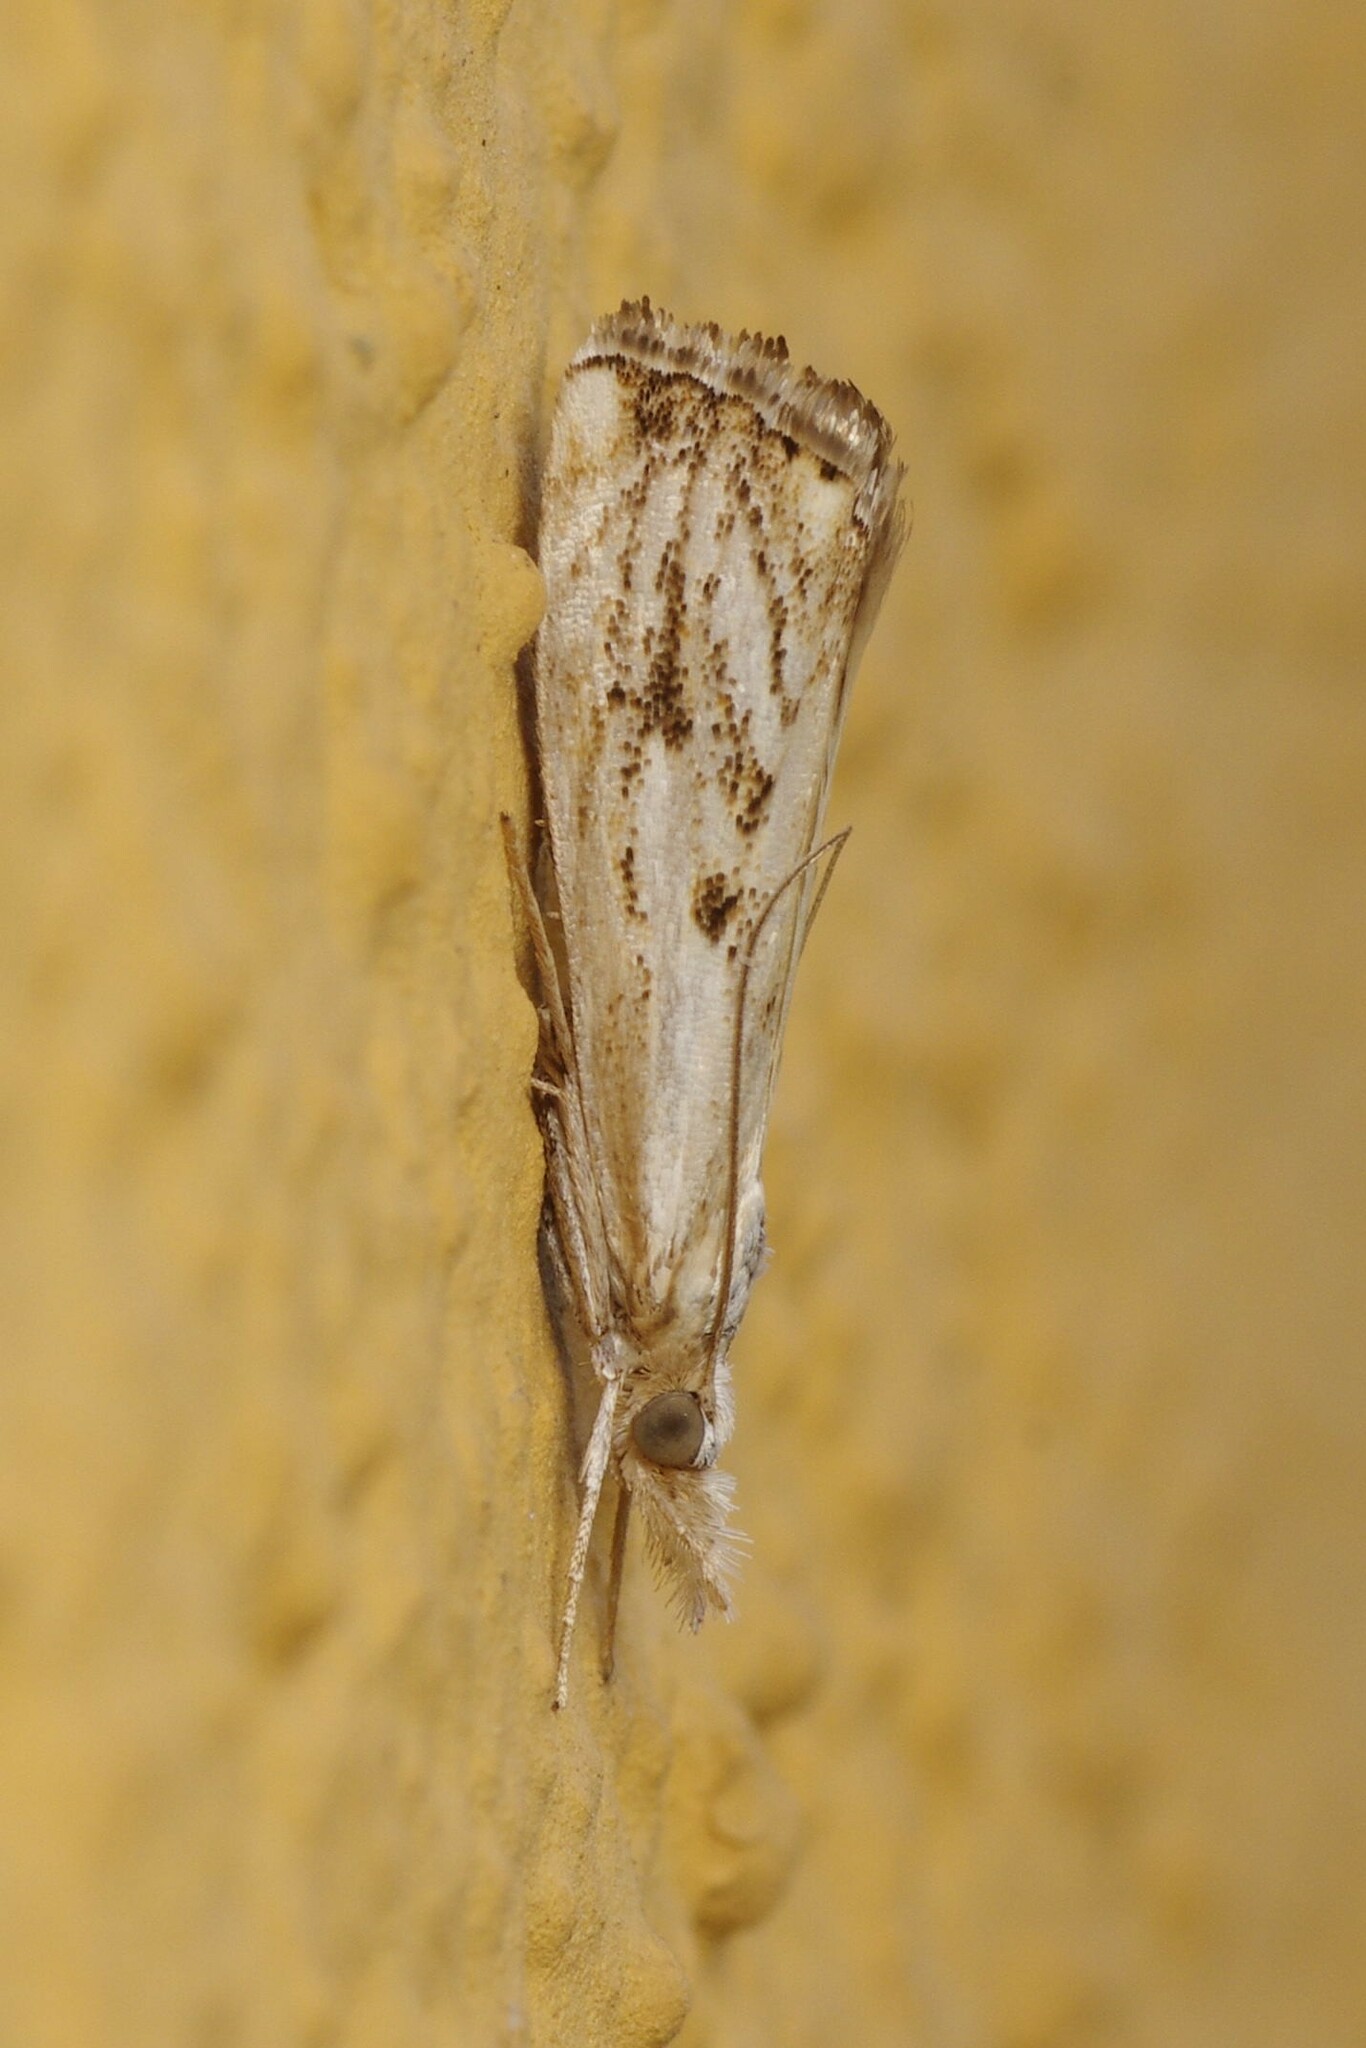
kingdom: Animalia
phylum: Arthropoda
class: Insecta
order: Lepidoptera
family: Crambidae
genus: Catoptria
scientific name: Catoptria falsella
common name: Chequered grass-veneer
